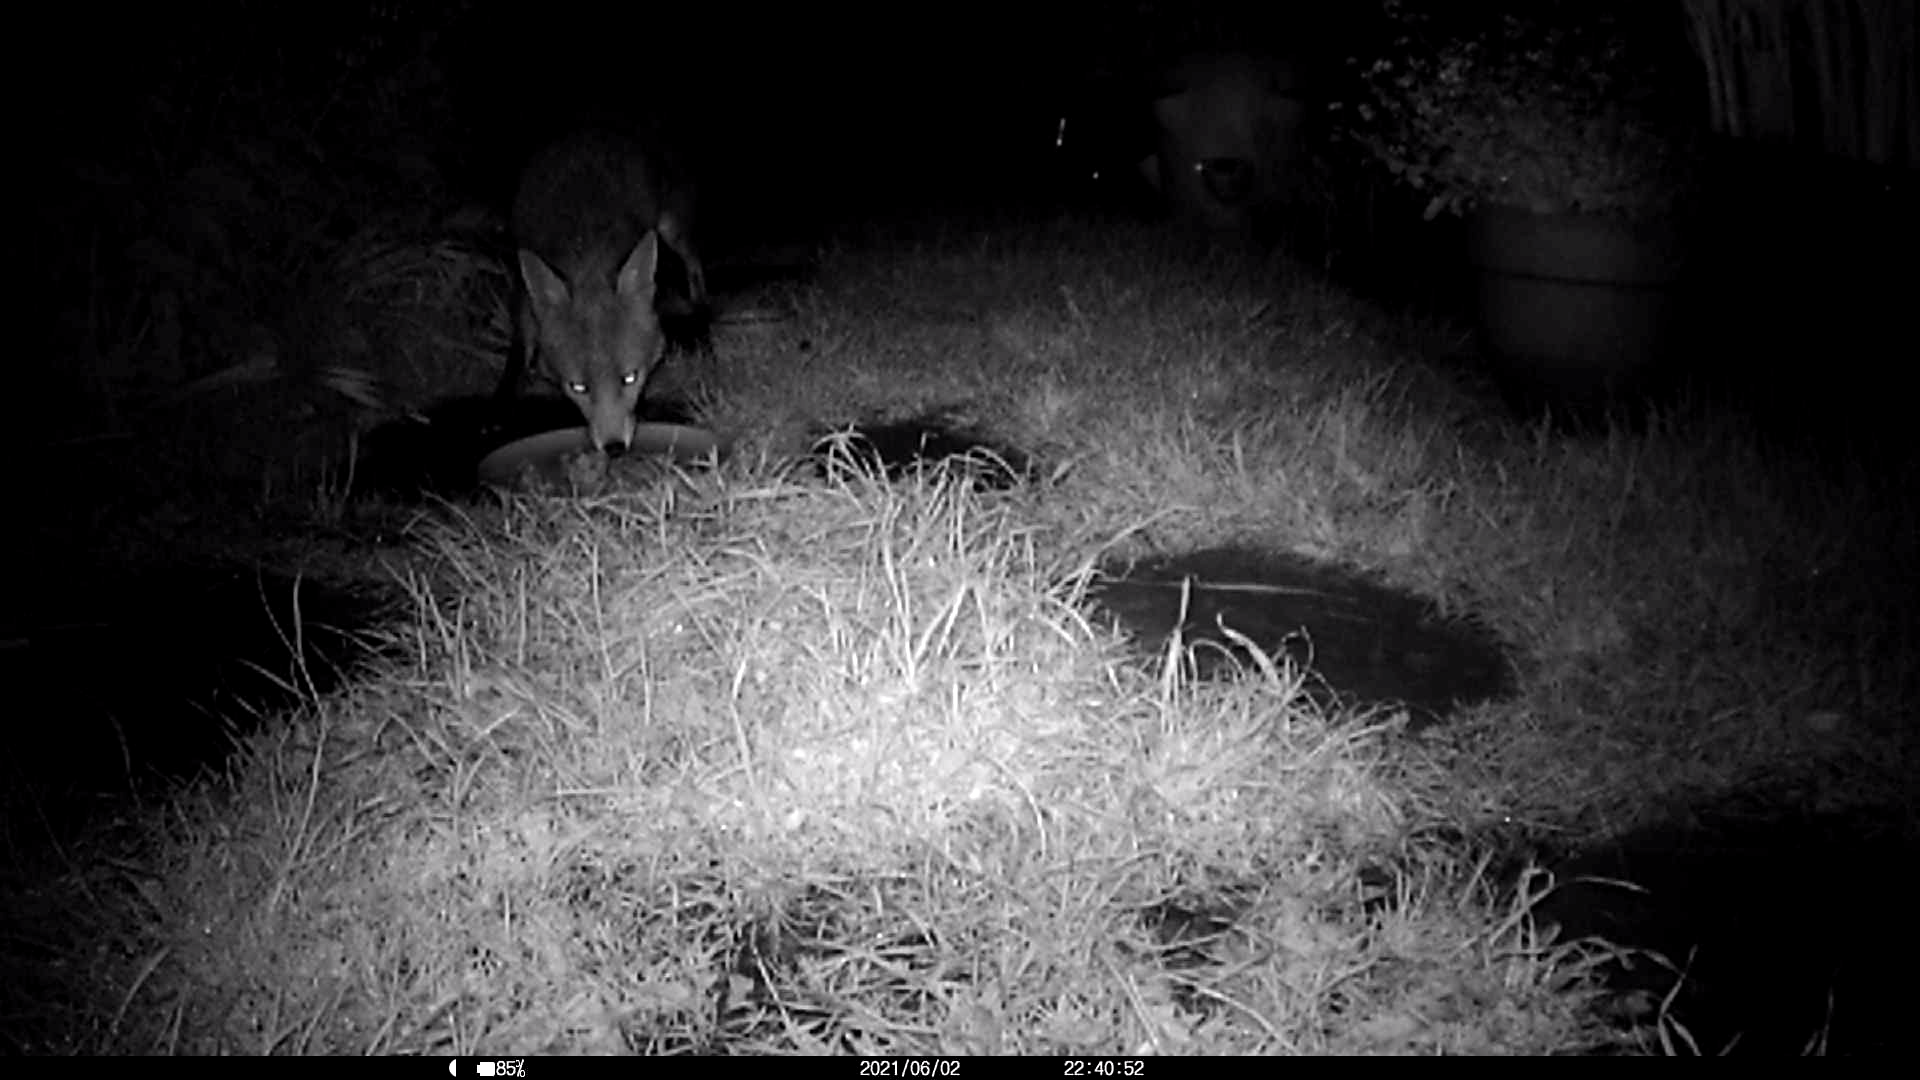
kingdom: Animalia
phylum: Chordata
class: Mammalia
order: Carnivora
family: Canidae
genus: Vulpes
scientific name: Vulpes vulpes
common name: Red fox
